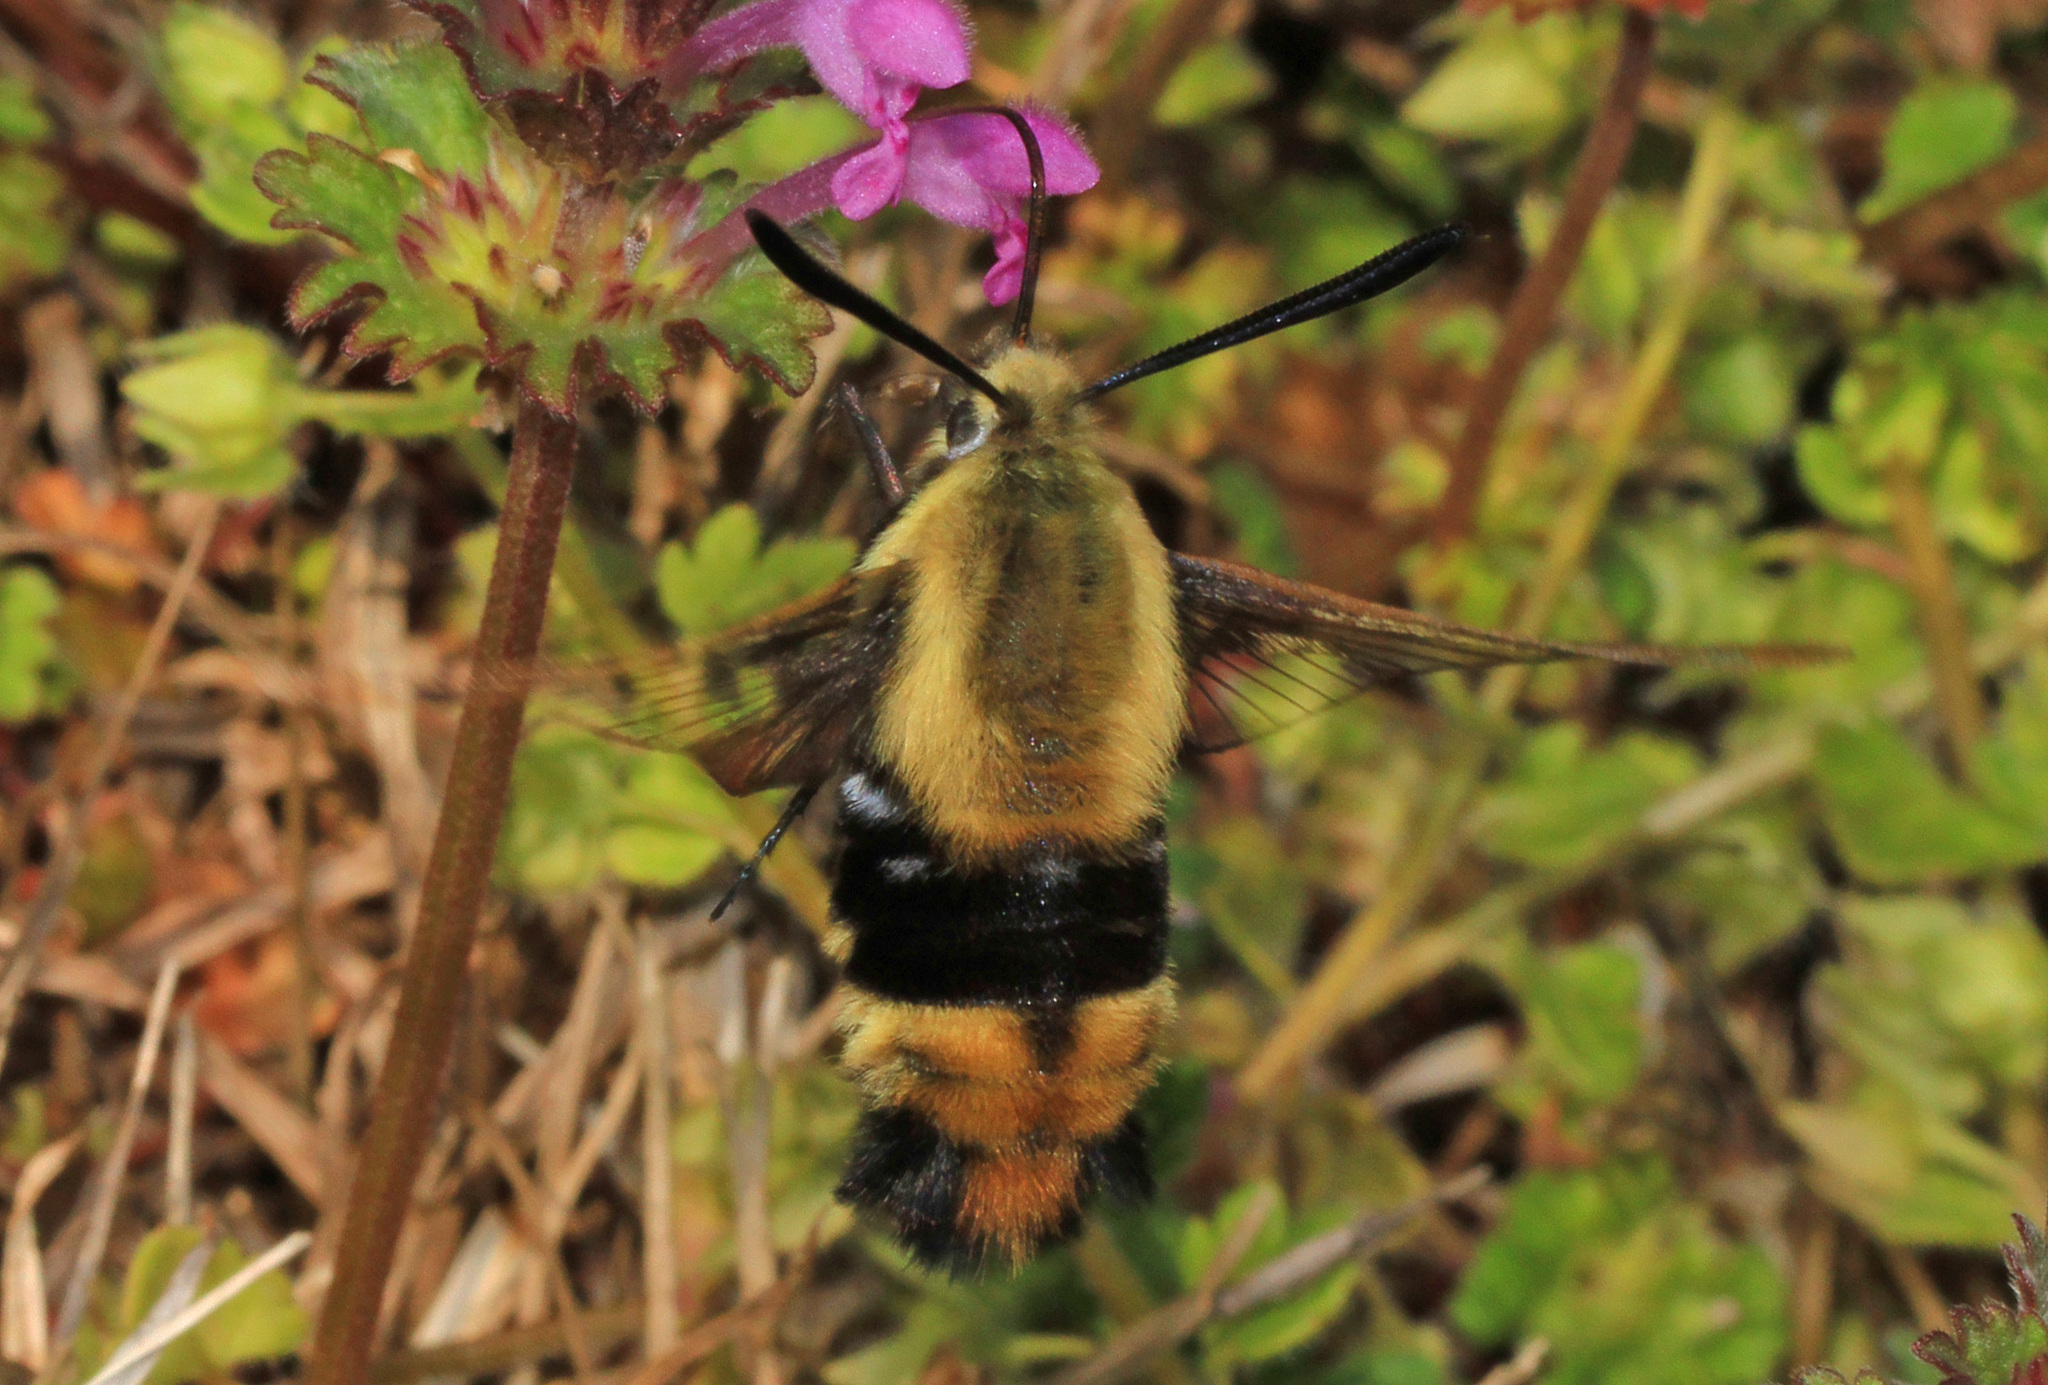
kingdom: Animalia
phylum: Arthropoda
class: Insecta
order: Lepidoptera
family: Sphingidae
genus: Hemaris
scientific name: Hemaris diffinis
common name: Bumblebee moth
